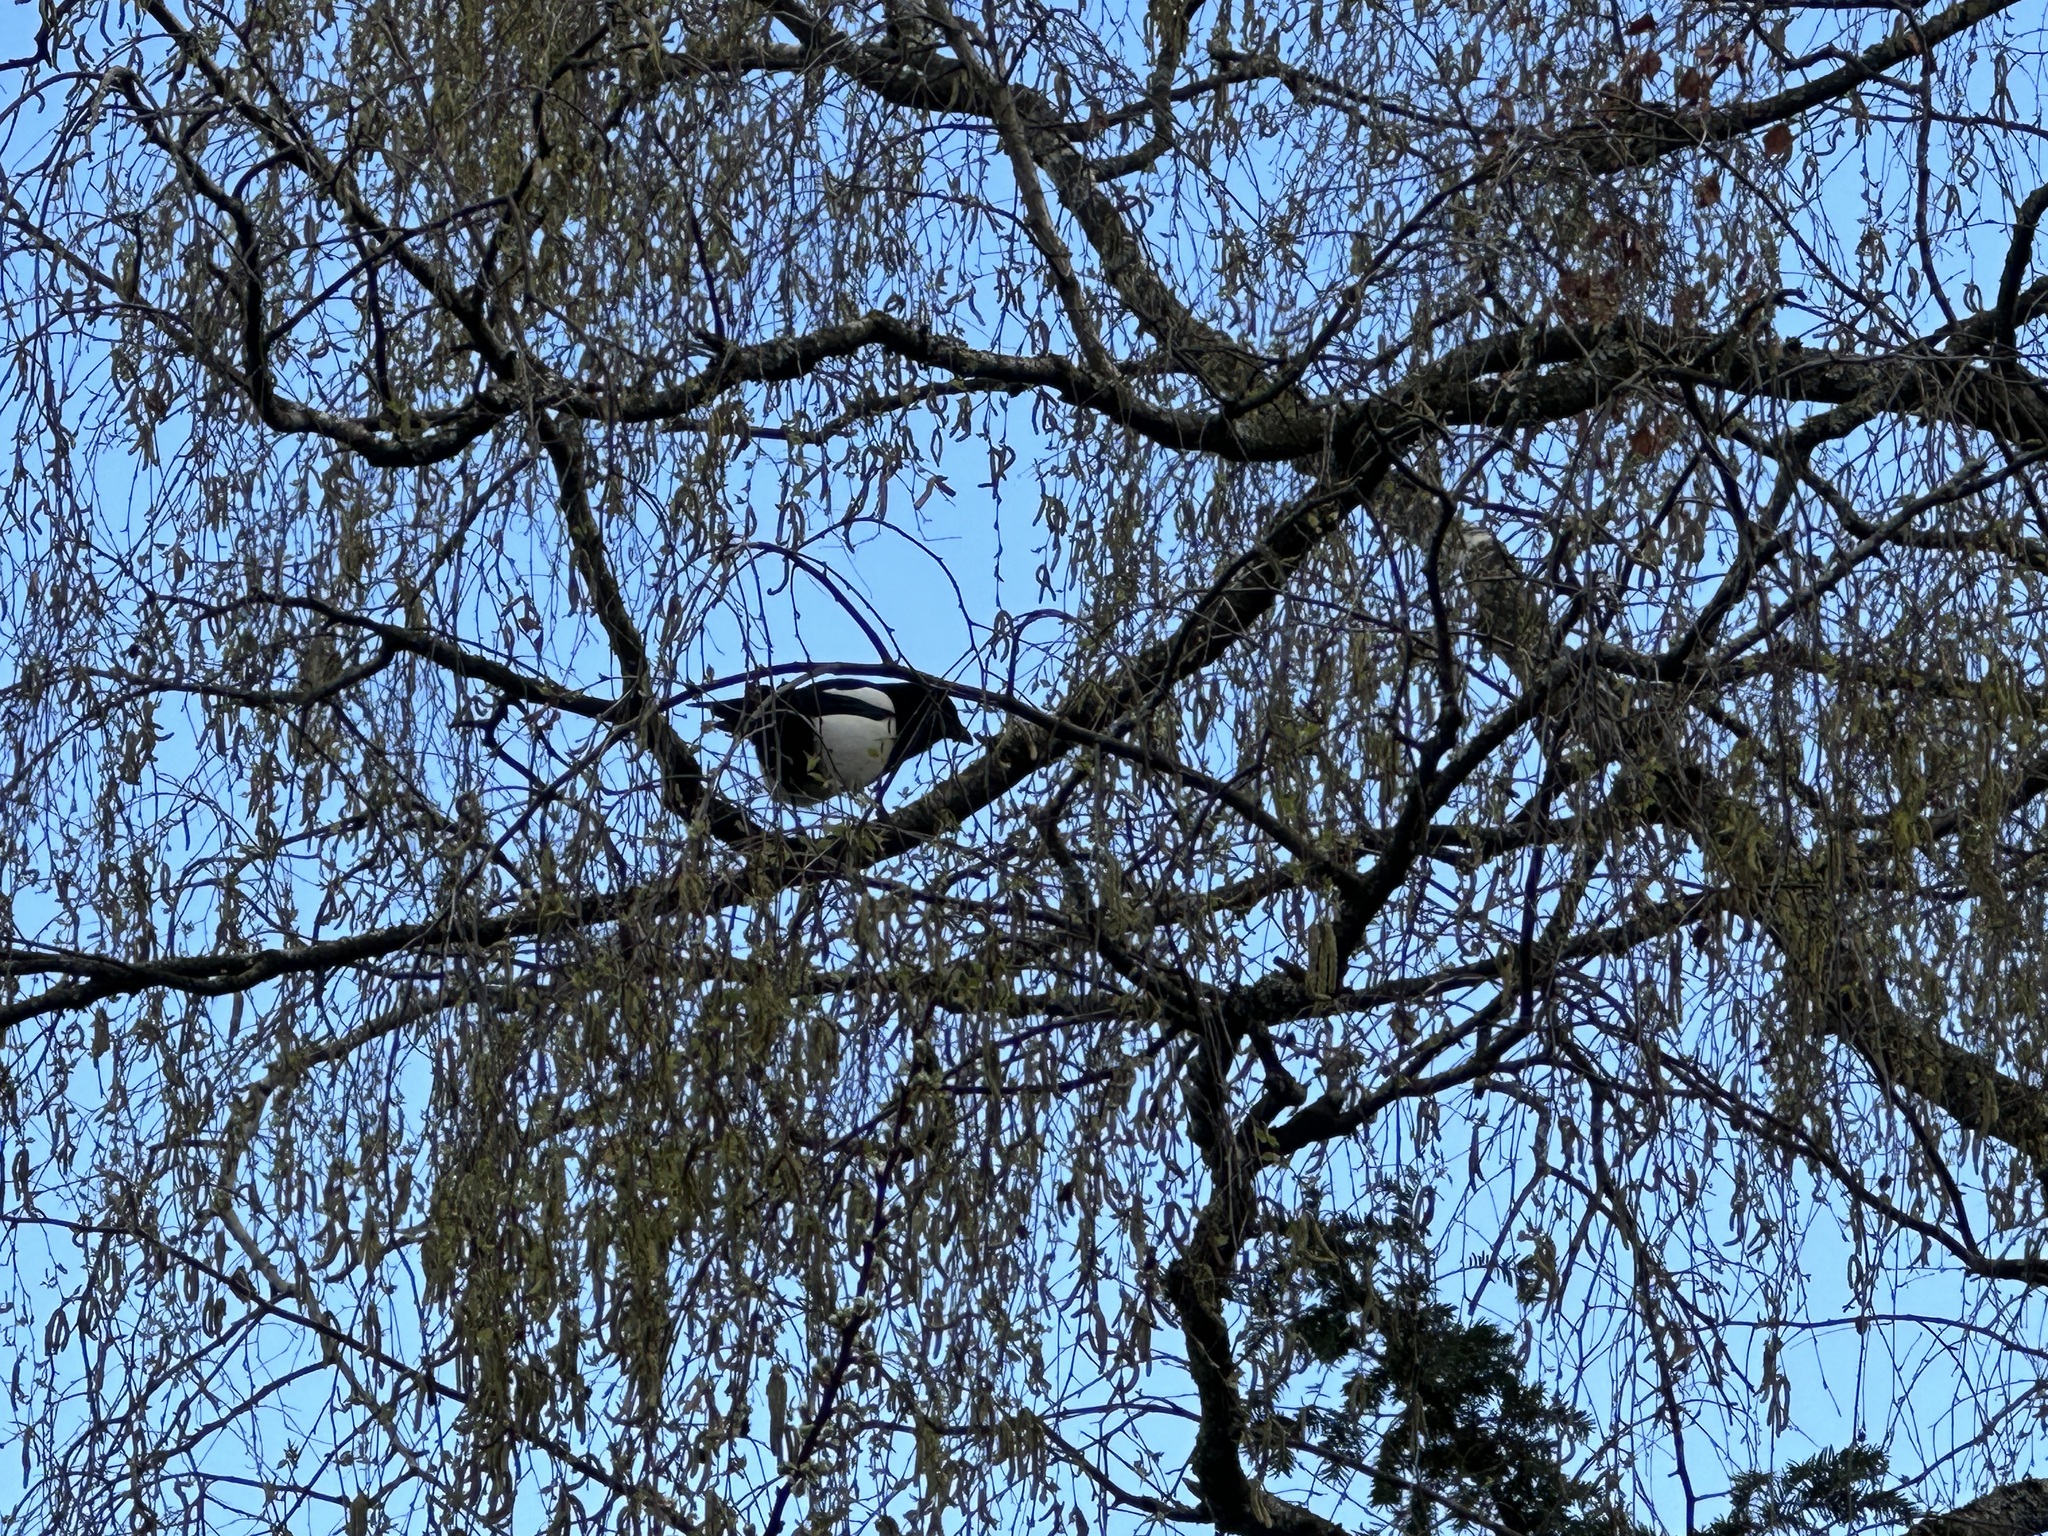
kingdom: Animalia
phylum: Chordata
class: Aves
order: Passeriformes
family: Corvidae
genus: Pica
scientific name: Pica pica
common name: Eurasian magpie
